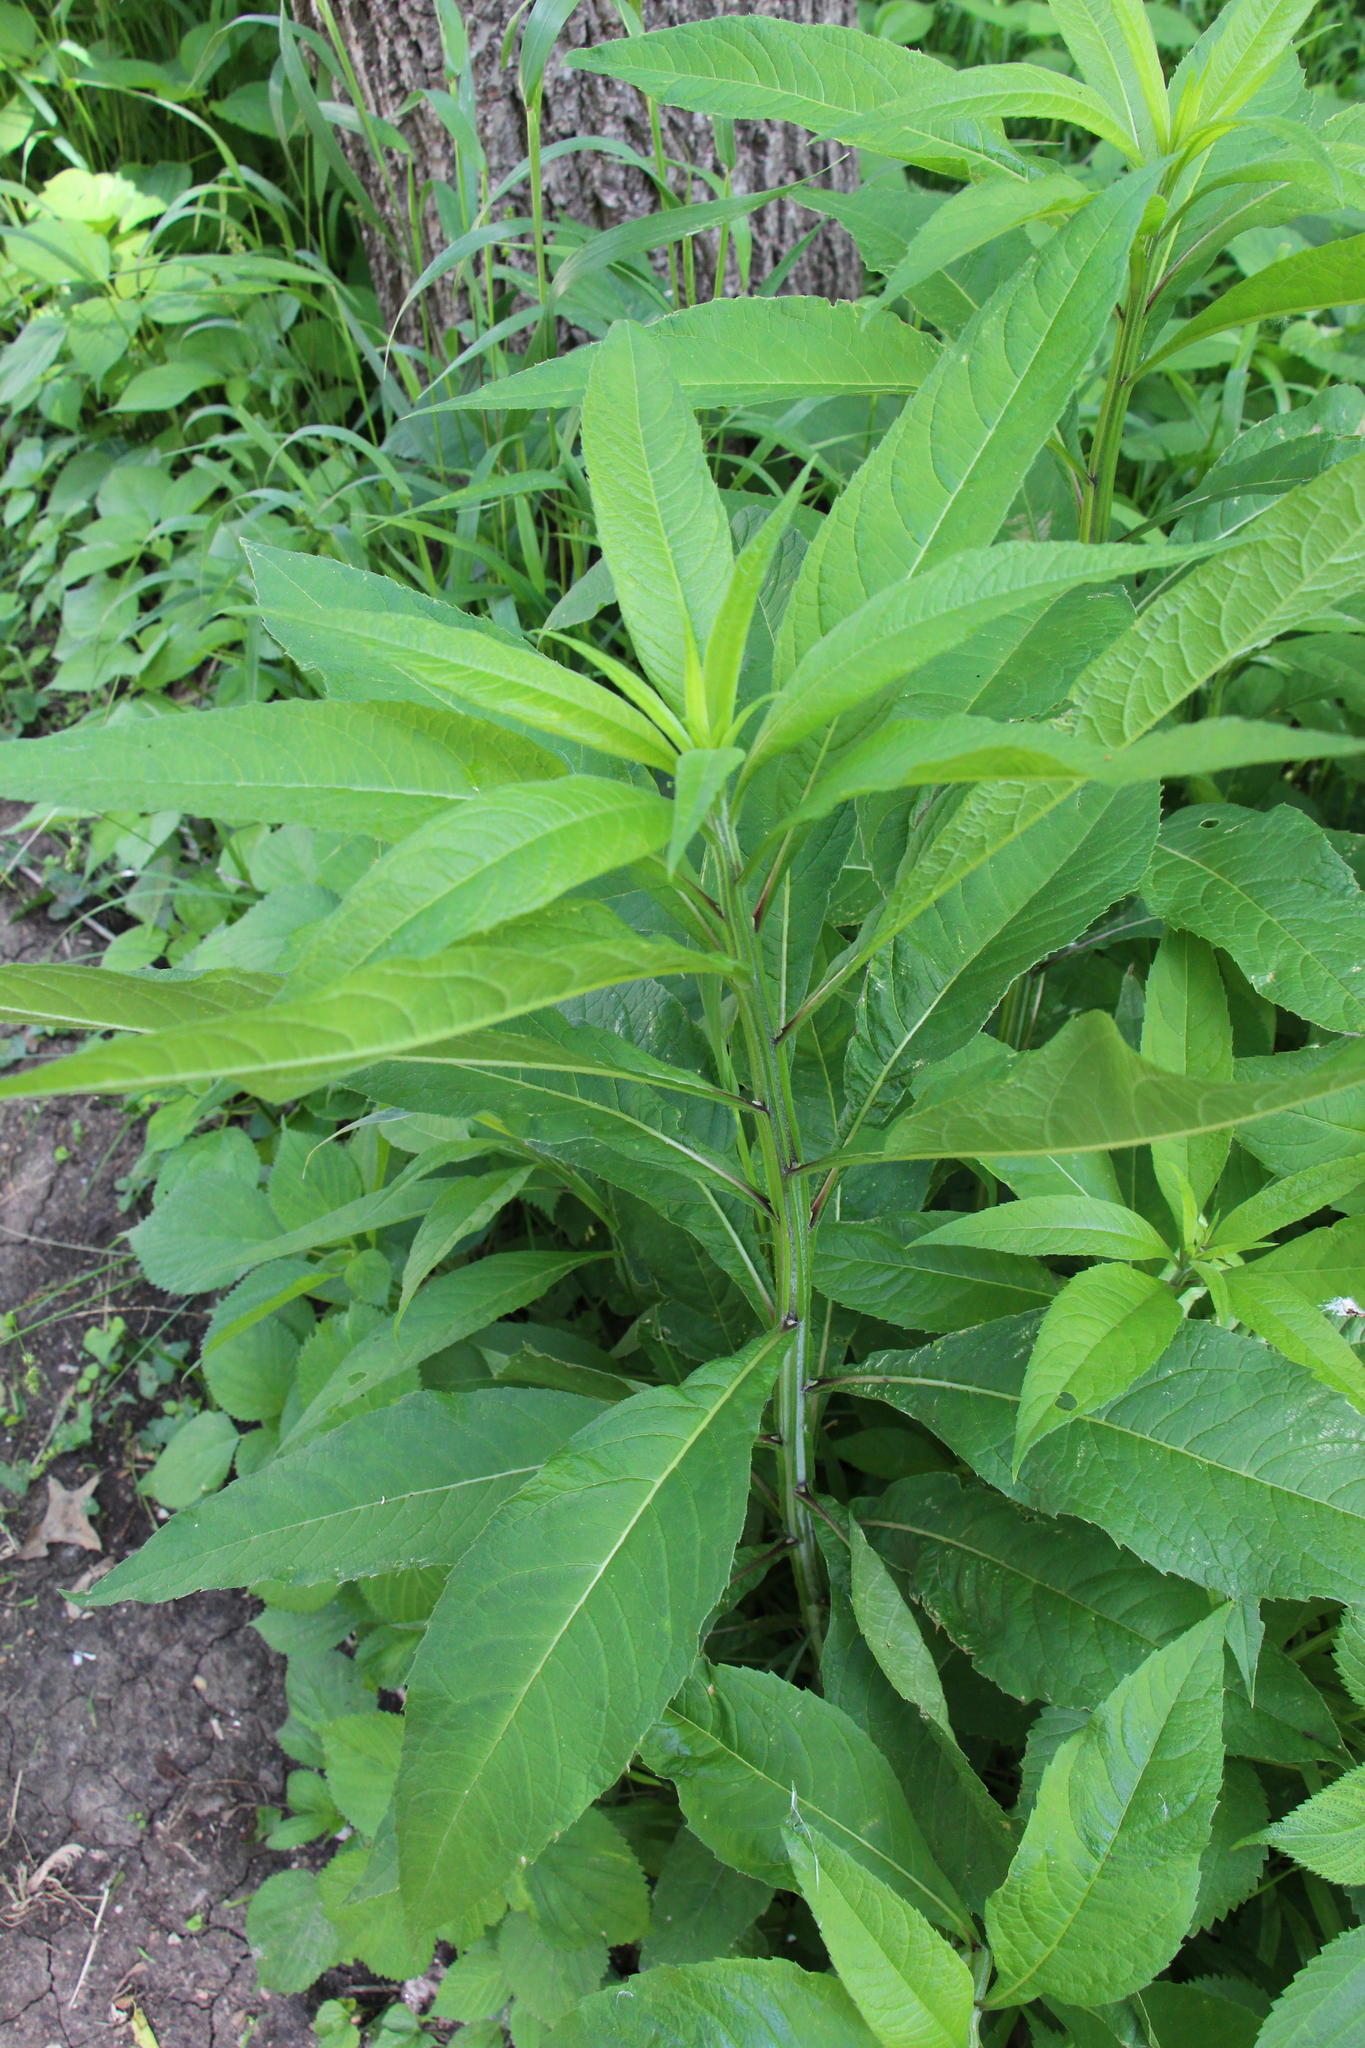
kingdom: Plantae
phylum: Tracheophyta
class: Magnoliopsida
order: Asterales
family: Asteraceae
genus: Verbesina
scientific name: Verbesina alternifolia
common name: Wingstem
